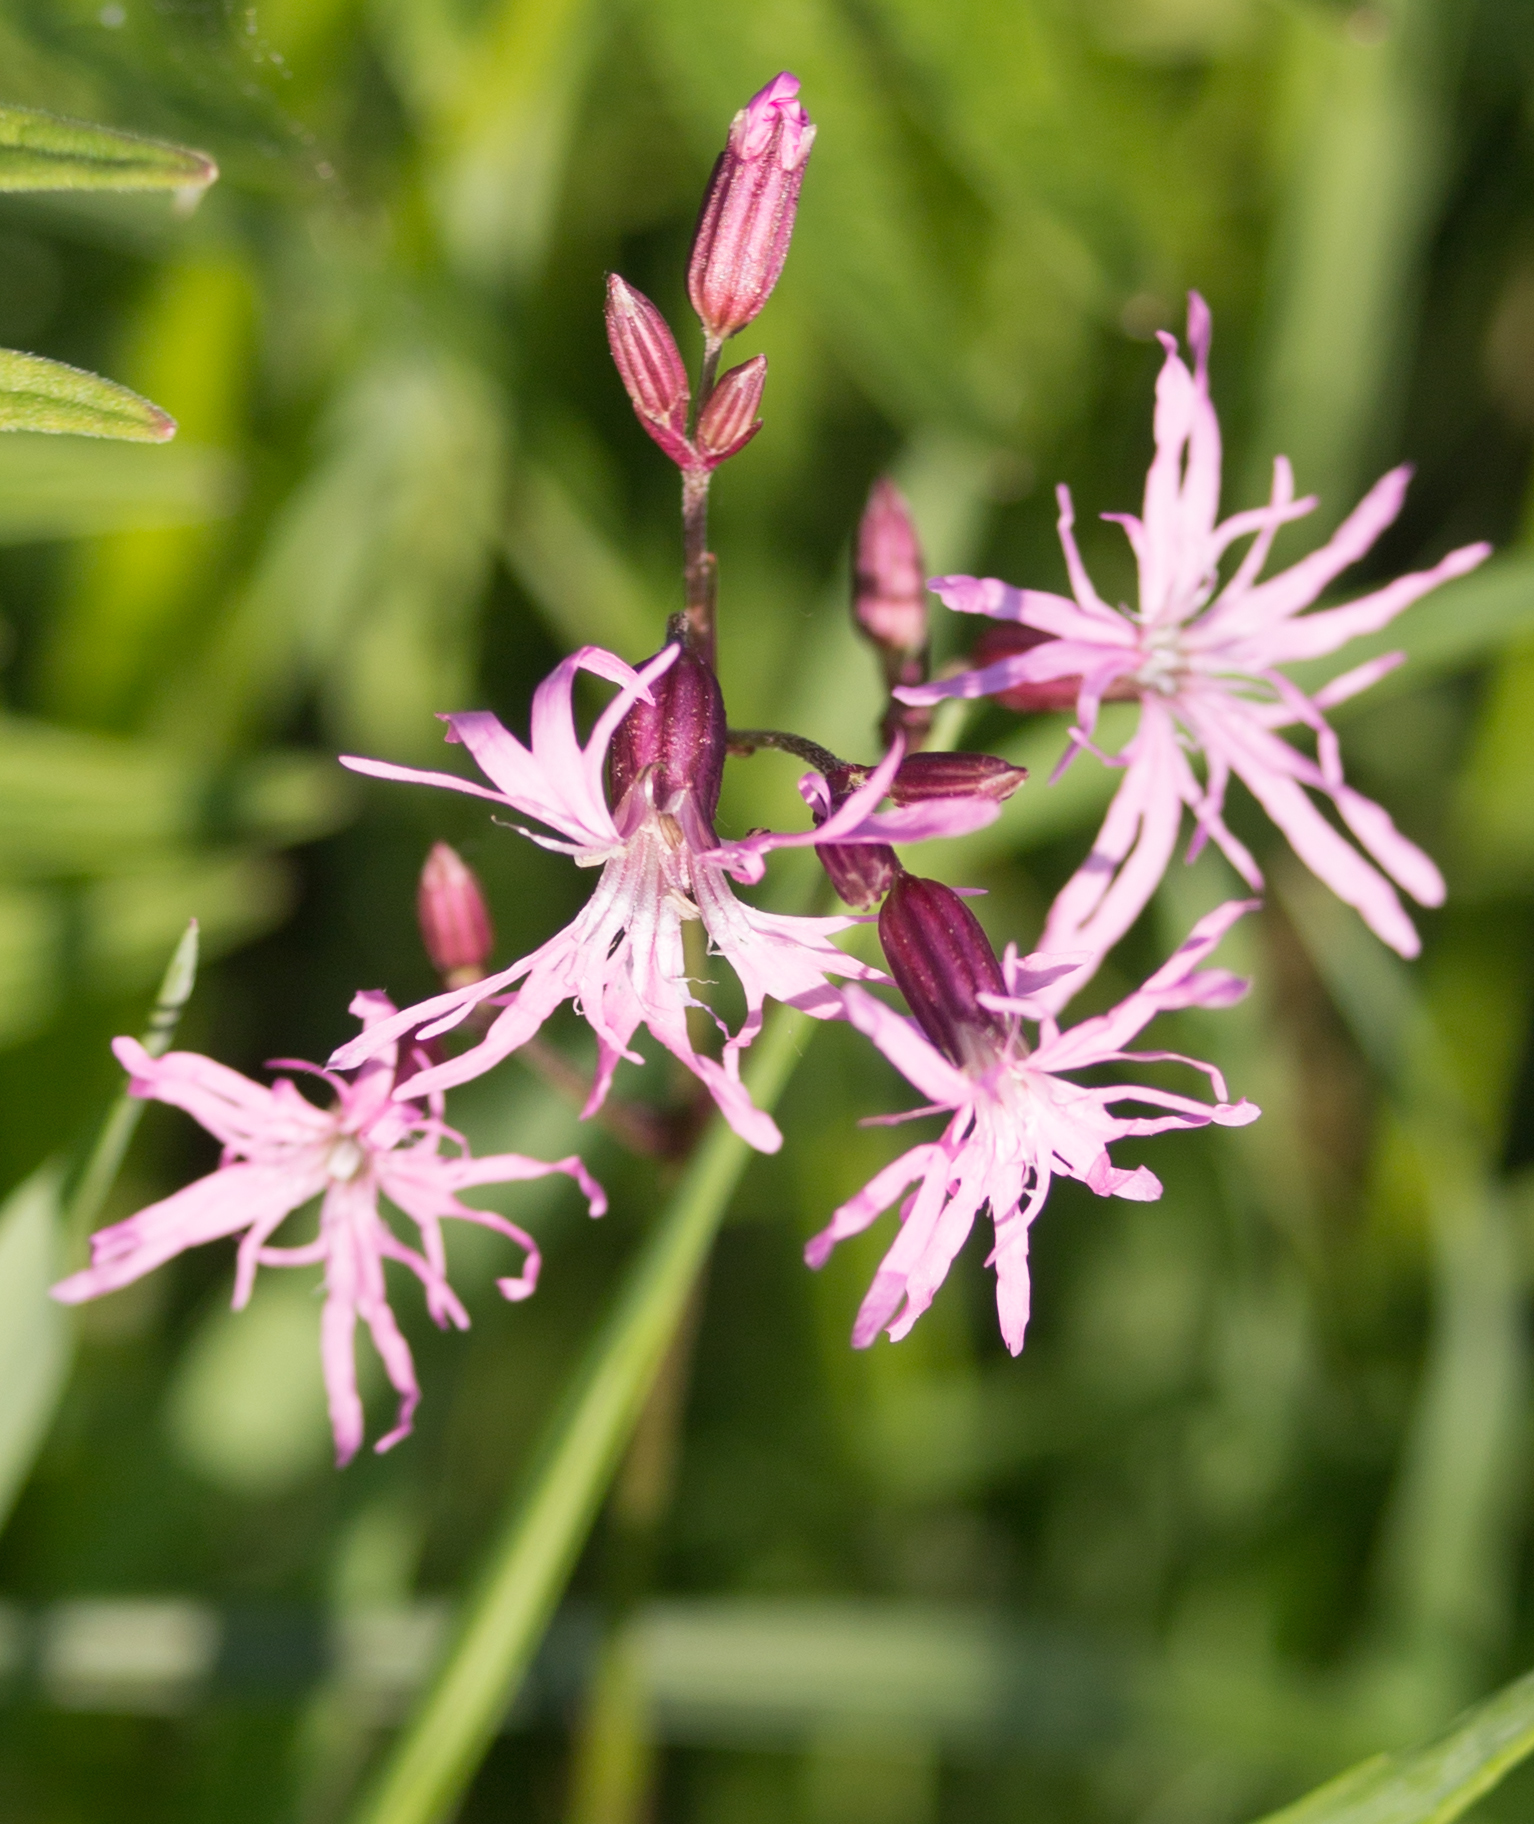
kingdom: Plantae
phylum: Tracheophyta
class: Magnoliopsida
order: Caryophyllales
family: Caryophyllaceae
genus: Silene
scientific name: Silene flos-cuculi
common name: Ragged-robin
